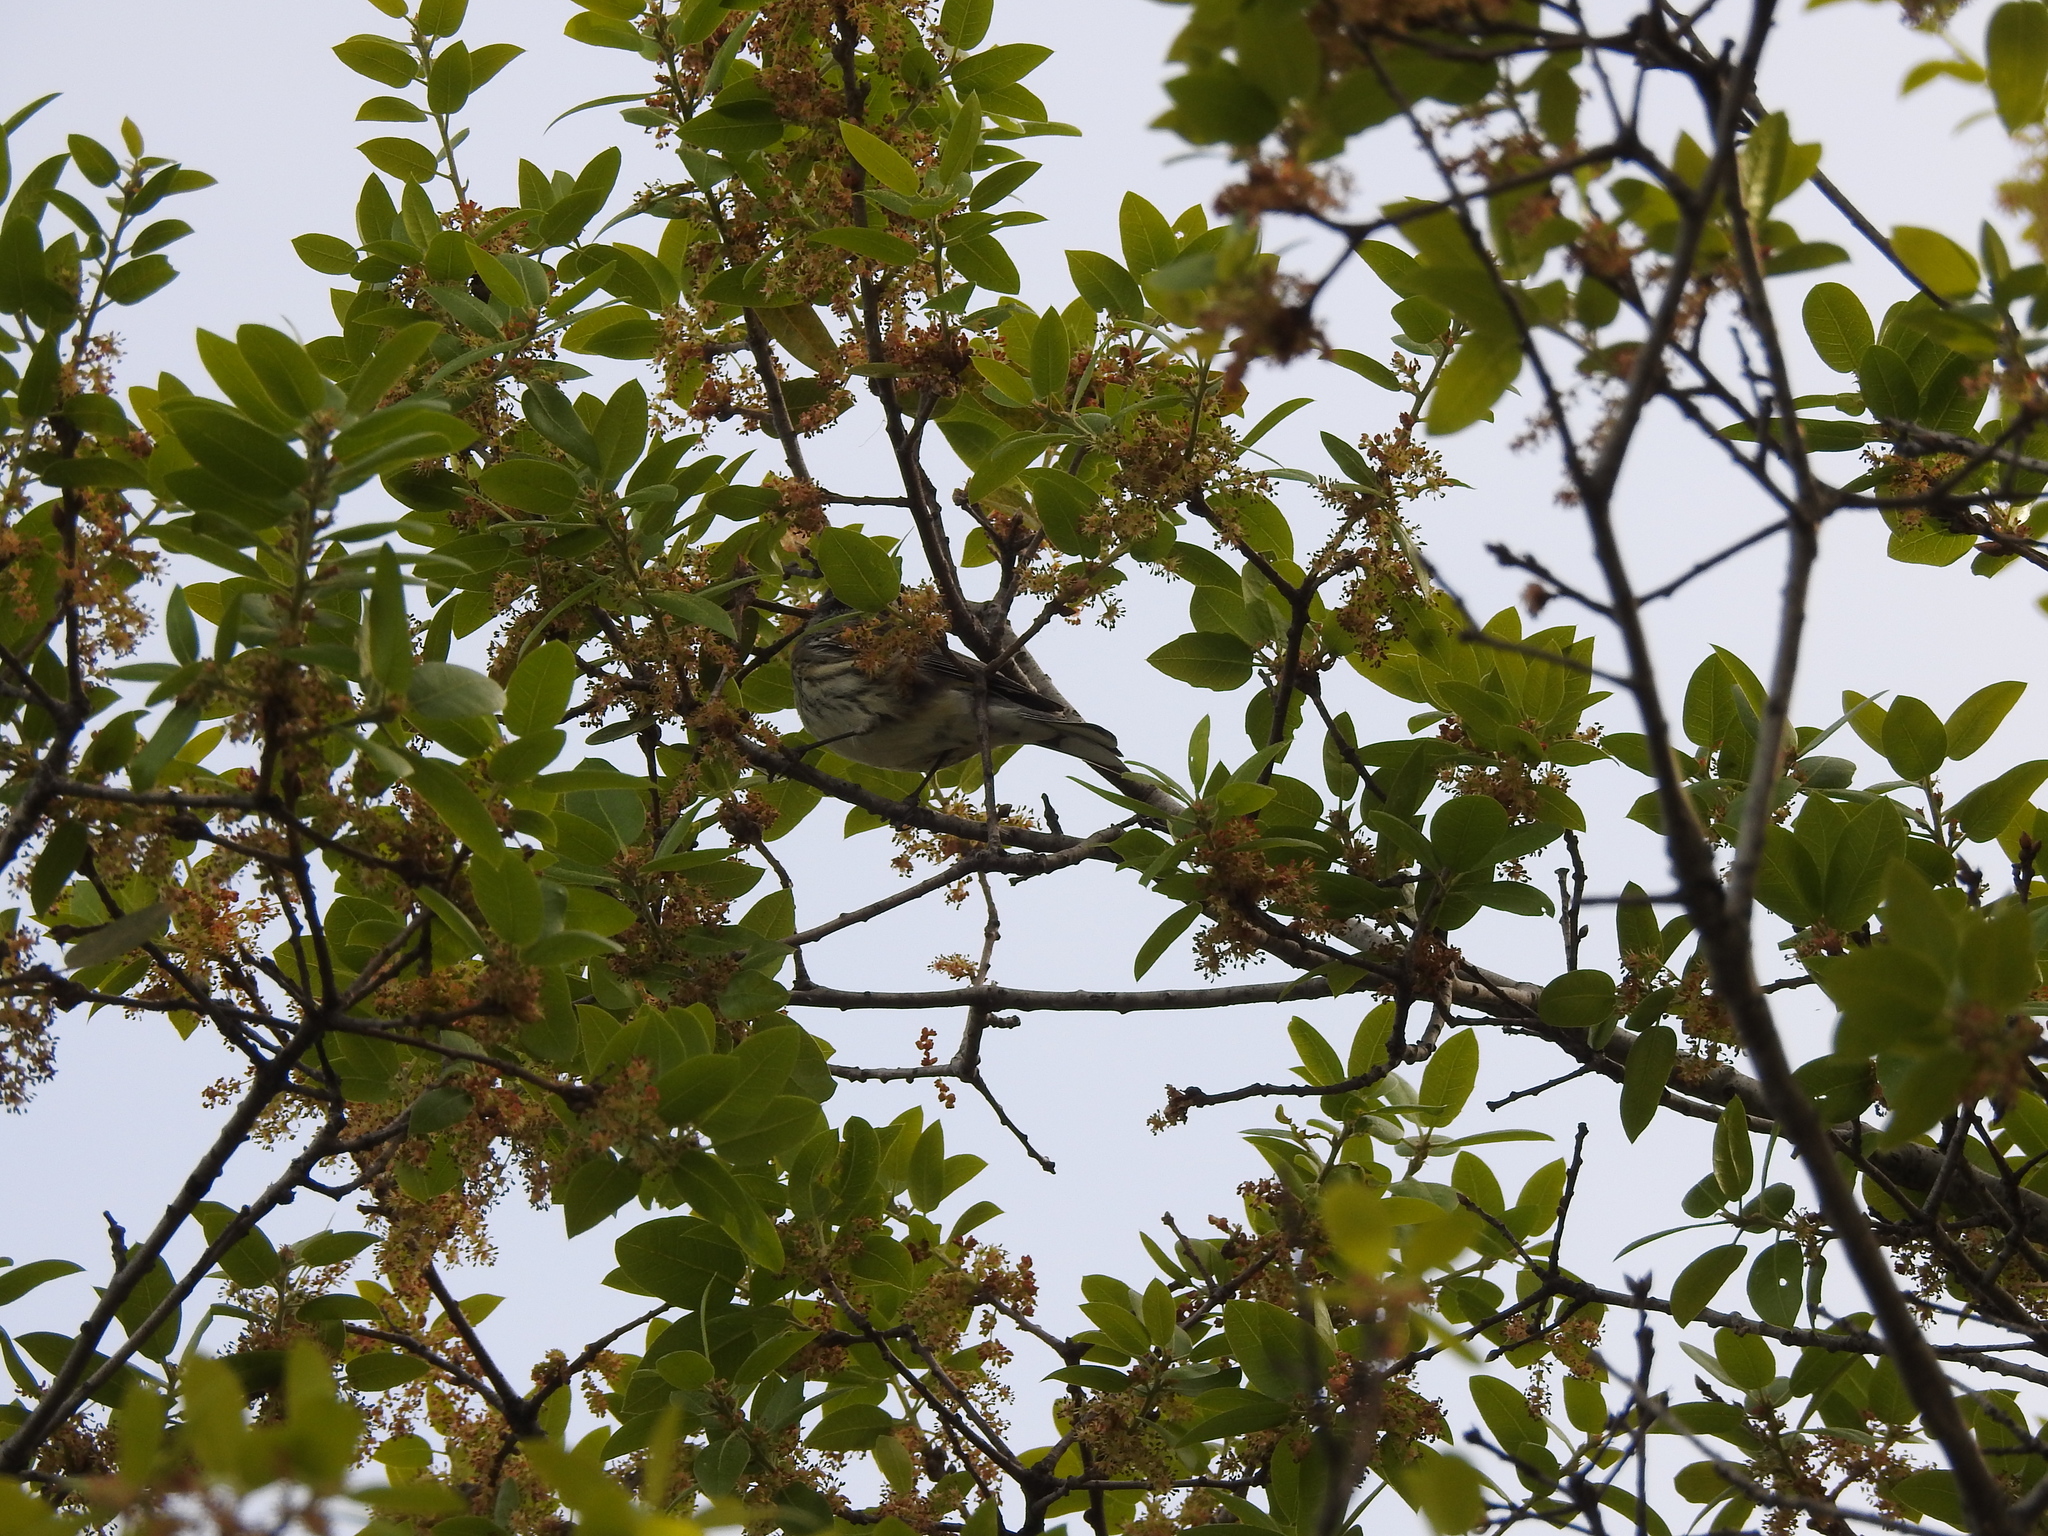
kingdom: Animalia
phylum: Chordata
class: Aves
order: Passeriformes
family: Parulidae
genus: Setophaga
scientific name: Setophaga coronata
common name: Myrtle warbler
